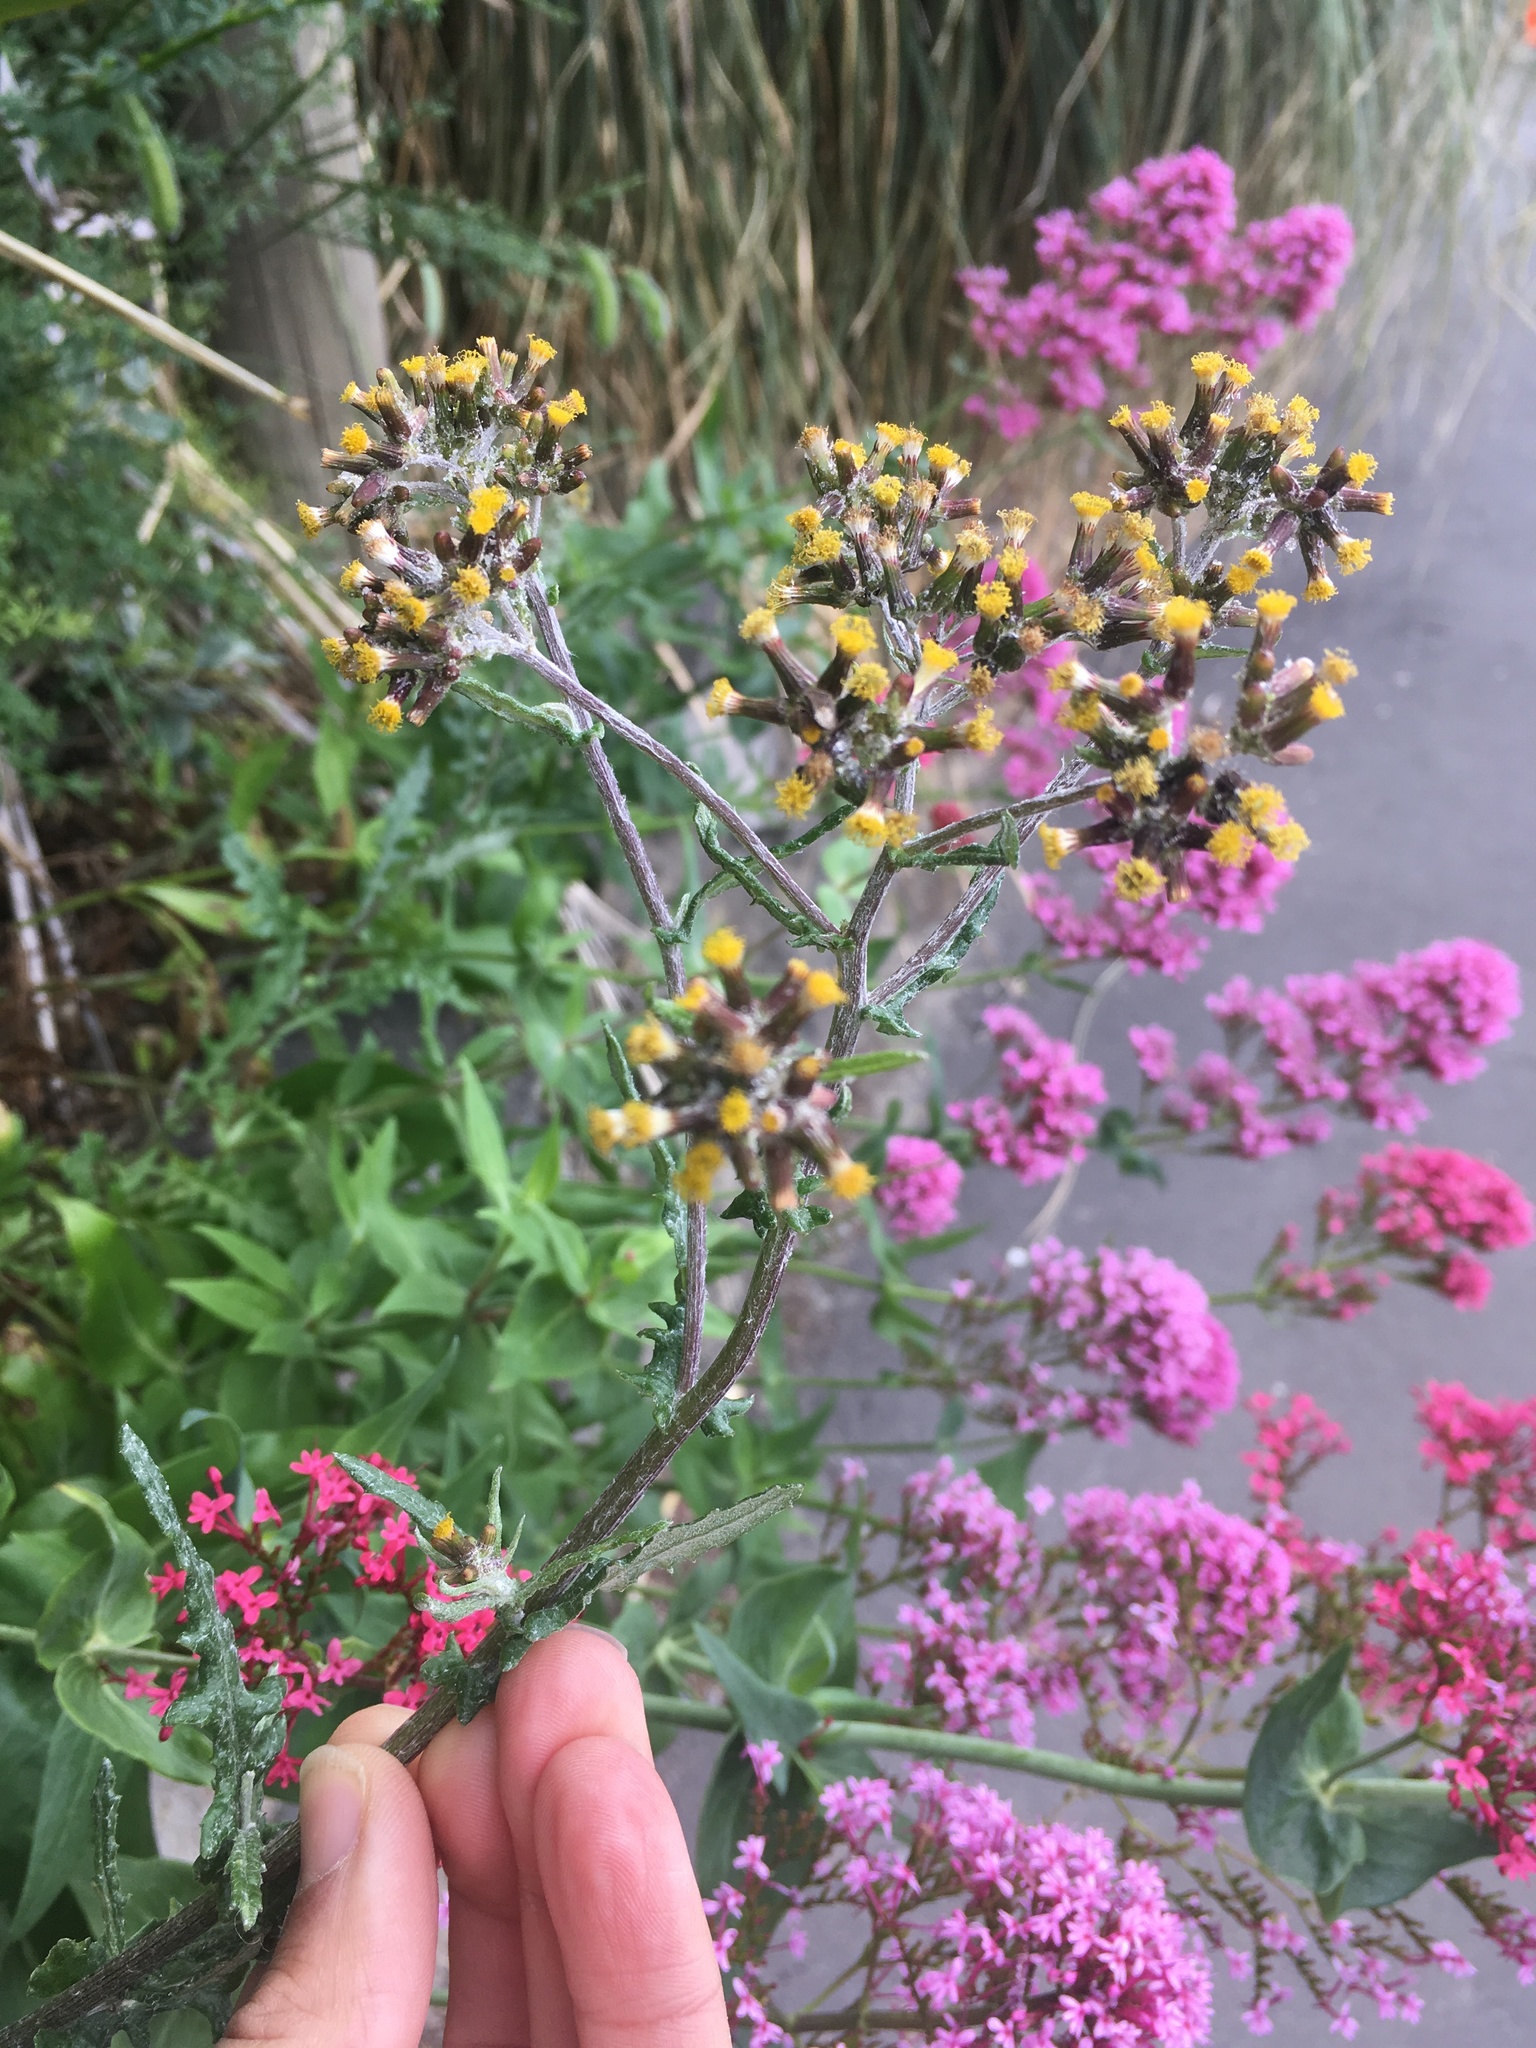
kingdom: Plantae
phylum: Tracheophyta
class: Magnoliopsida
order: Asterales
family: Asteraceae
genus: Senecio
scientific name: Senecio glomeratus
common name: Cutleaf burnweed
